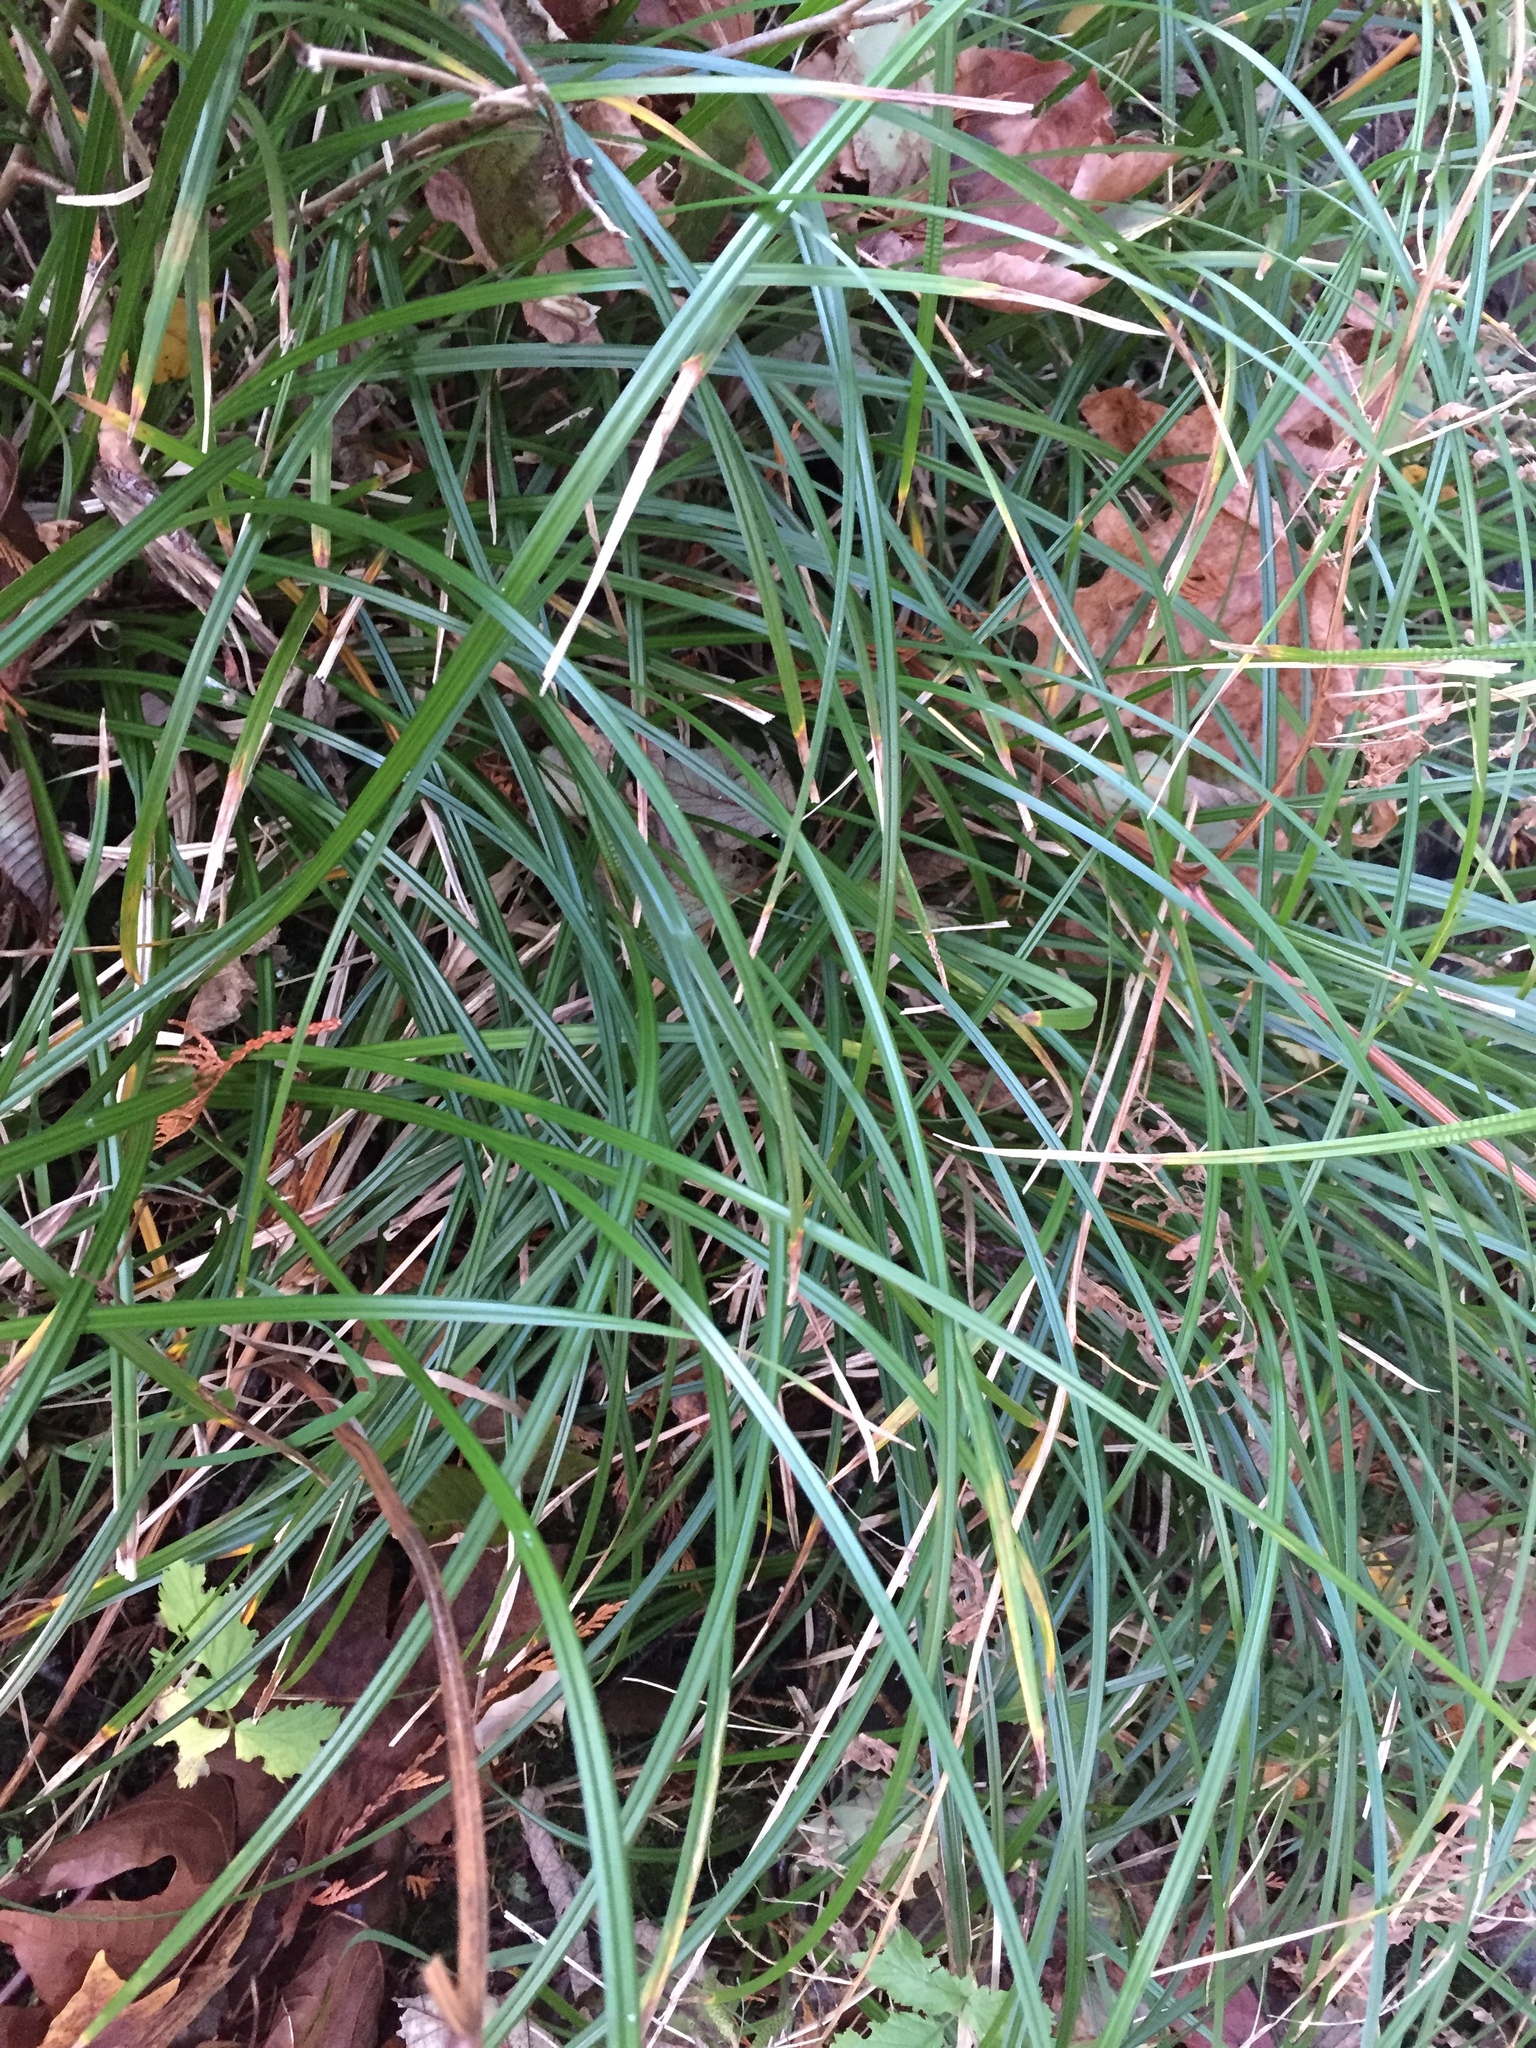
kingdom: Plantae
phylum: Tracheophyta
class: Liliopsida
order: Poales
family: Cyperaceae
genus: Carex
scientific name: Carex obnupta
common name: Slough sedge
